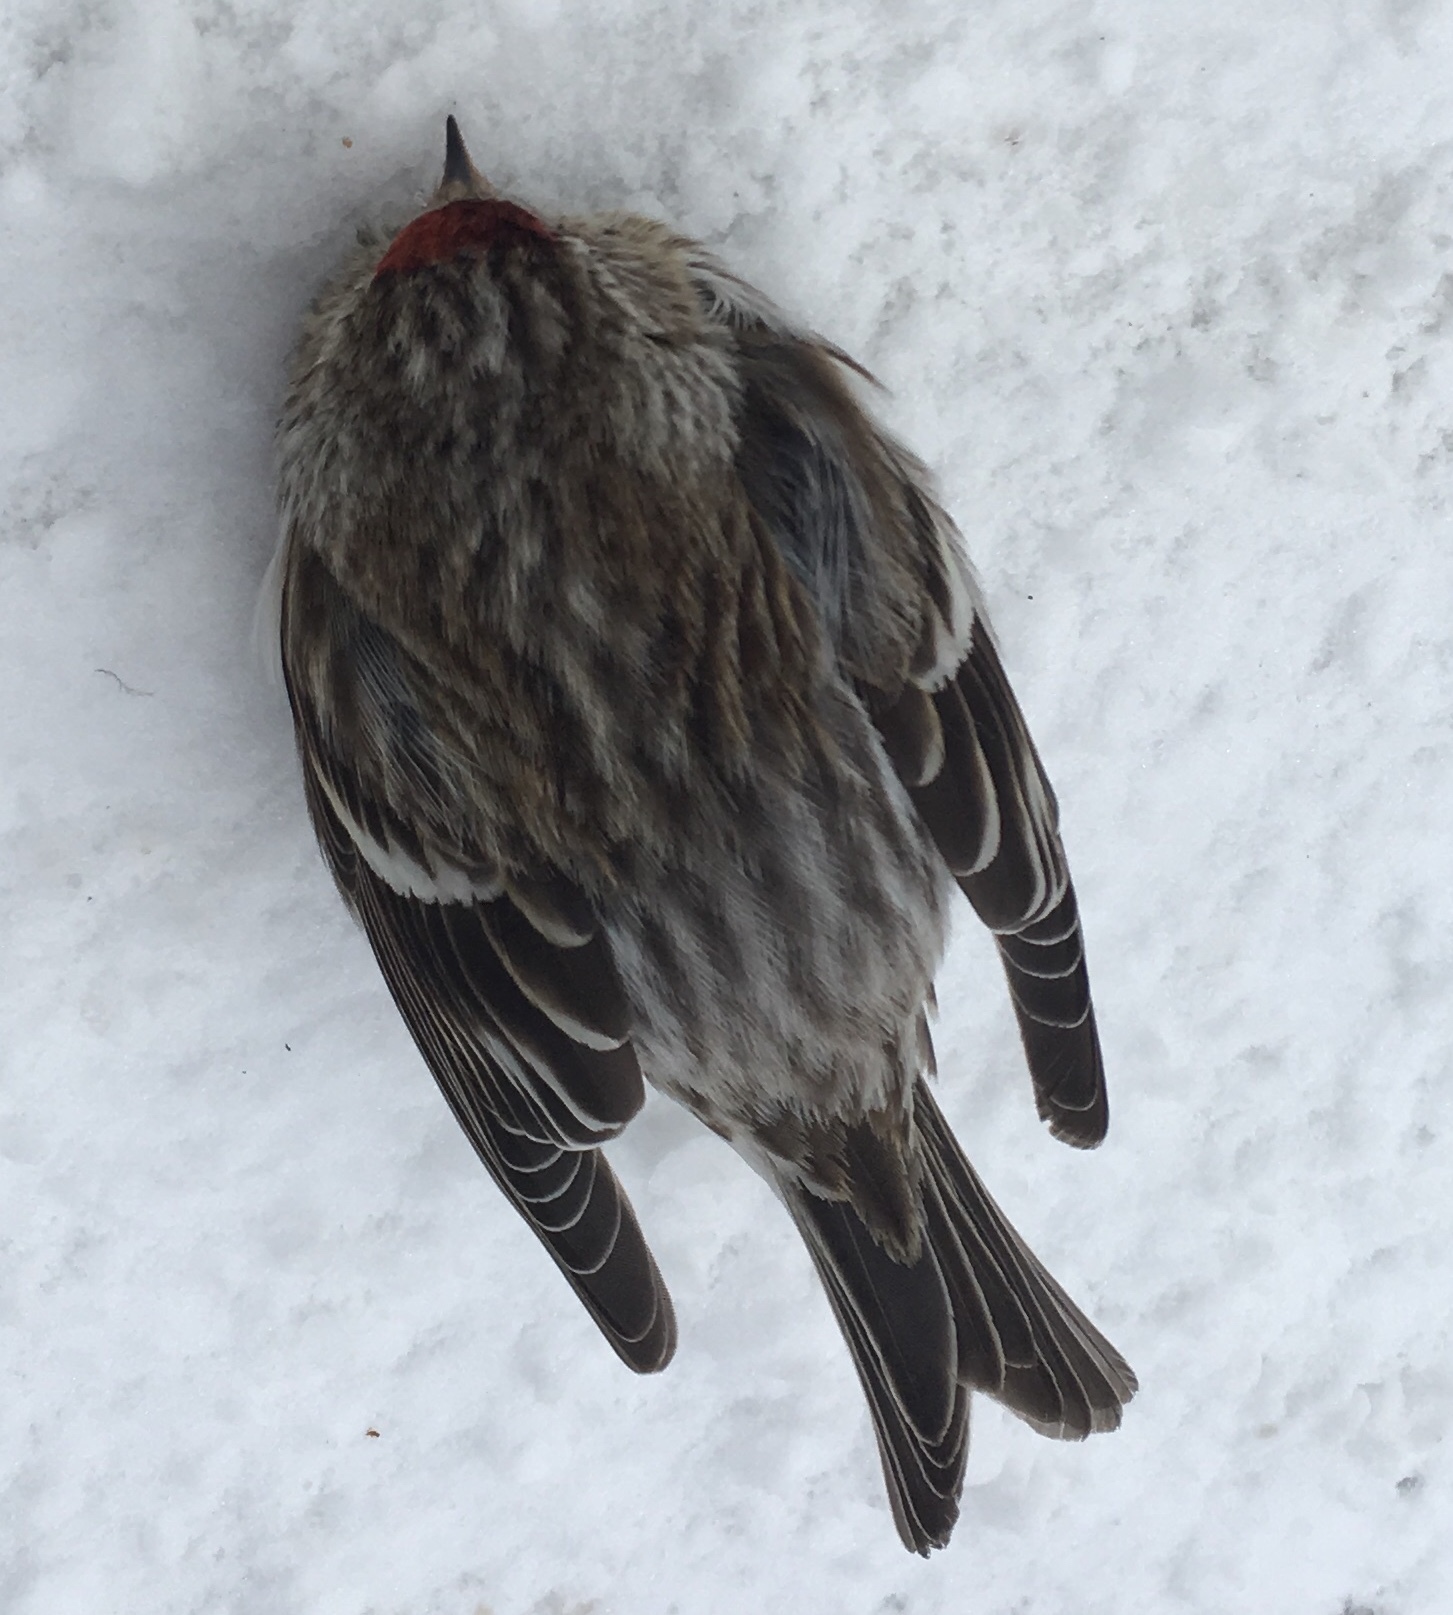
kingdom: Animalia
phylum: Chordata
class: Aves
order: Passeriformes
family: Fringillidae
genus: Acanthis
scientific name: Acanthis flammea
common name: Common redpoll
